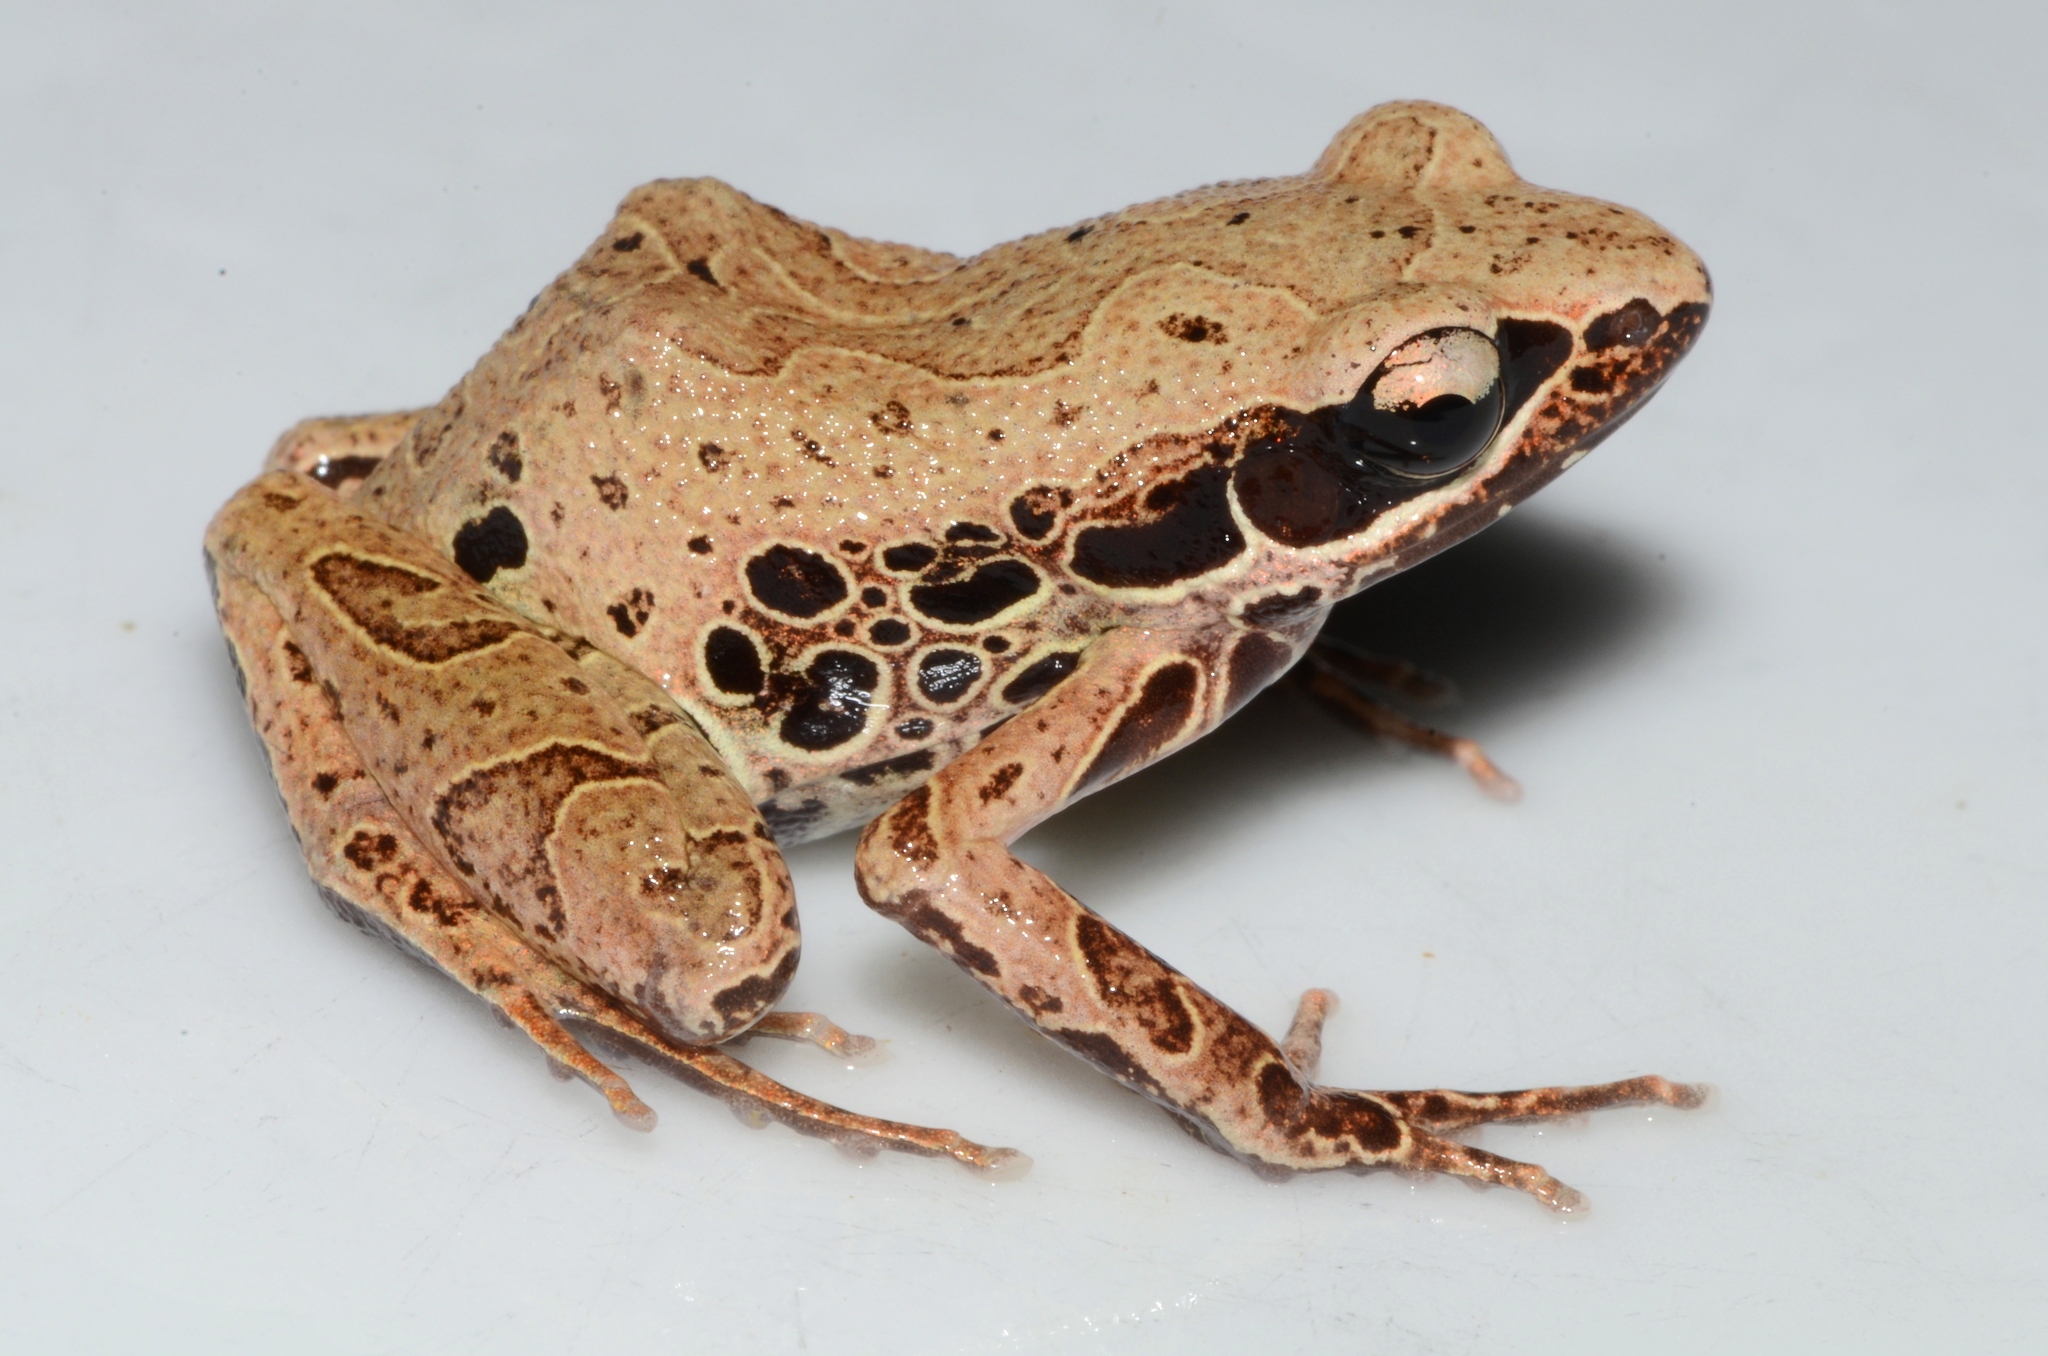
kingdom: Animalia
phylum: Chordata
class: Amphibia
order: Anura
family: Arthroleptidae
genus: Cardioglossa
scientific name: Cardioglossa leucomystax
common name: Silver long-fingered frog
